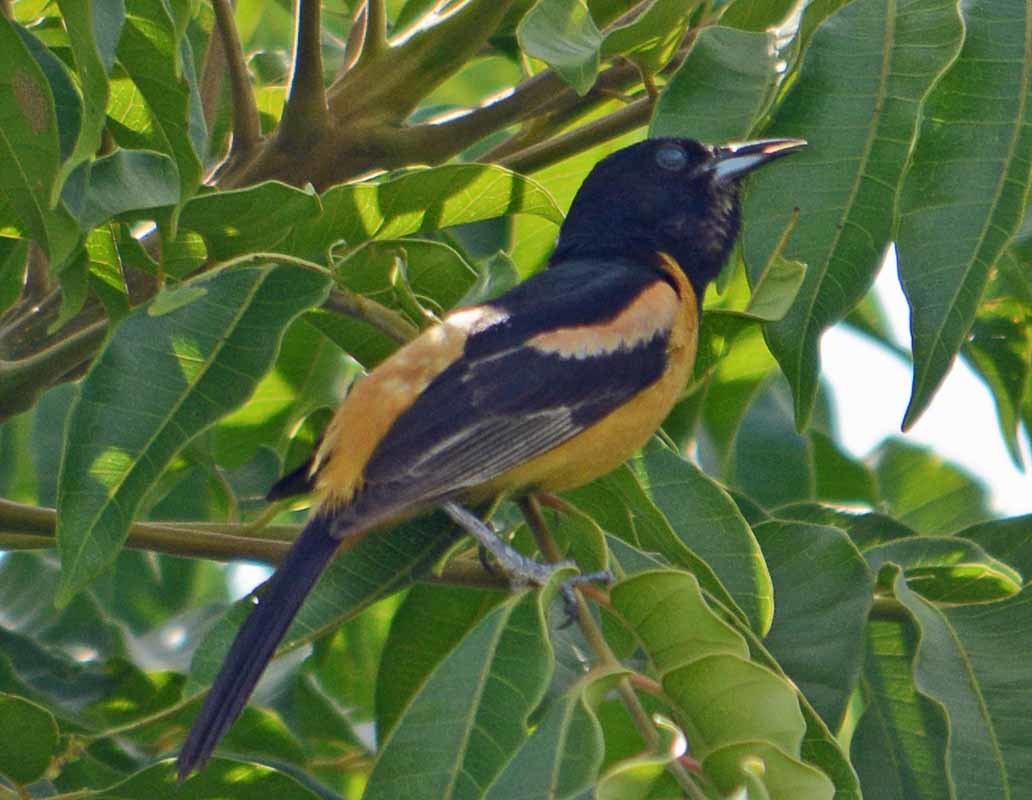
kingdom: Animalia
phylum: Chordata
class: Aves
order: Passeriformes
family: Icteridae
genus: Icterus
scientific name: Icterus spurius
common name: Orchard oriole
